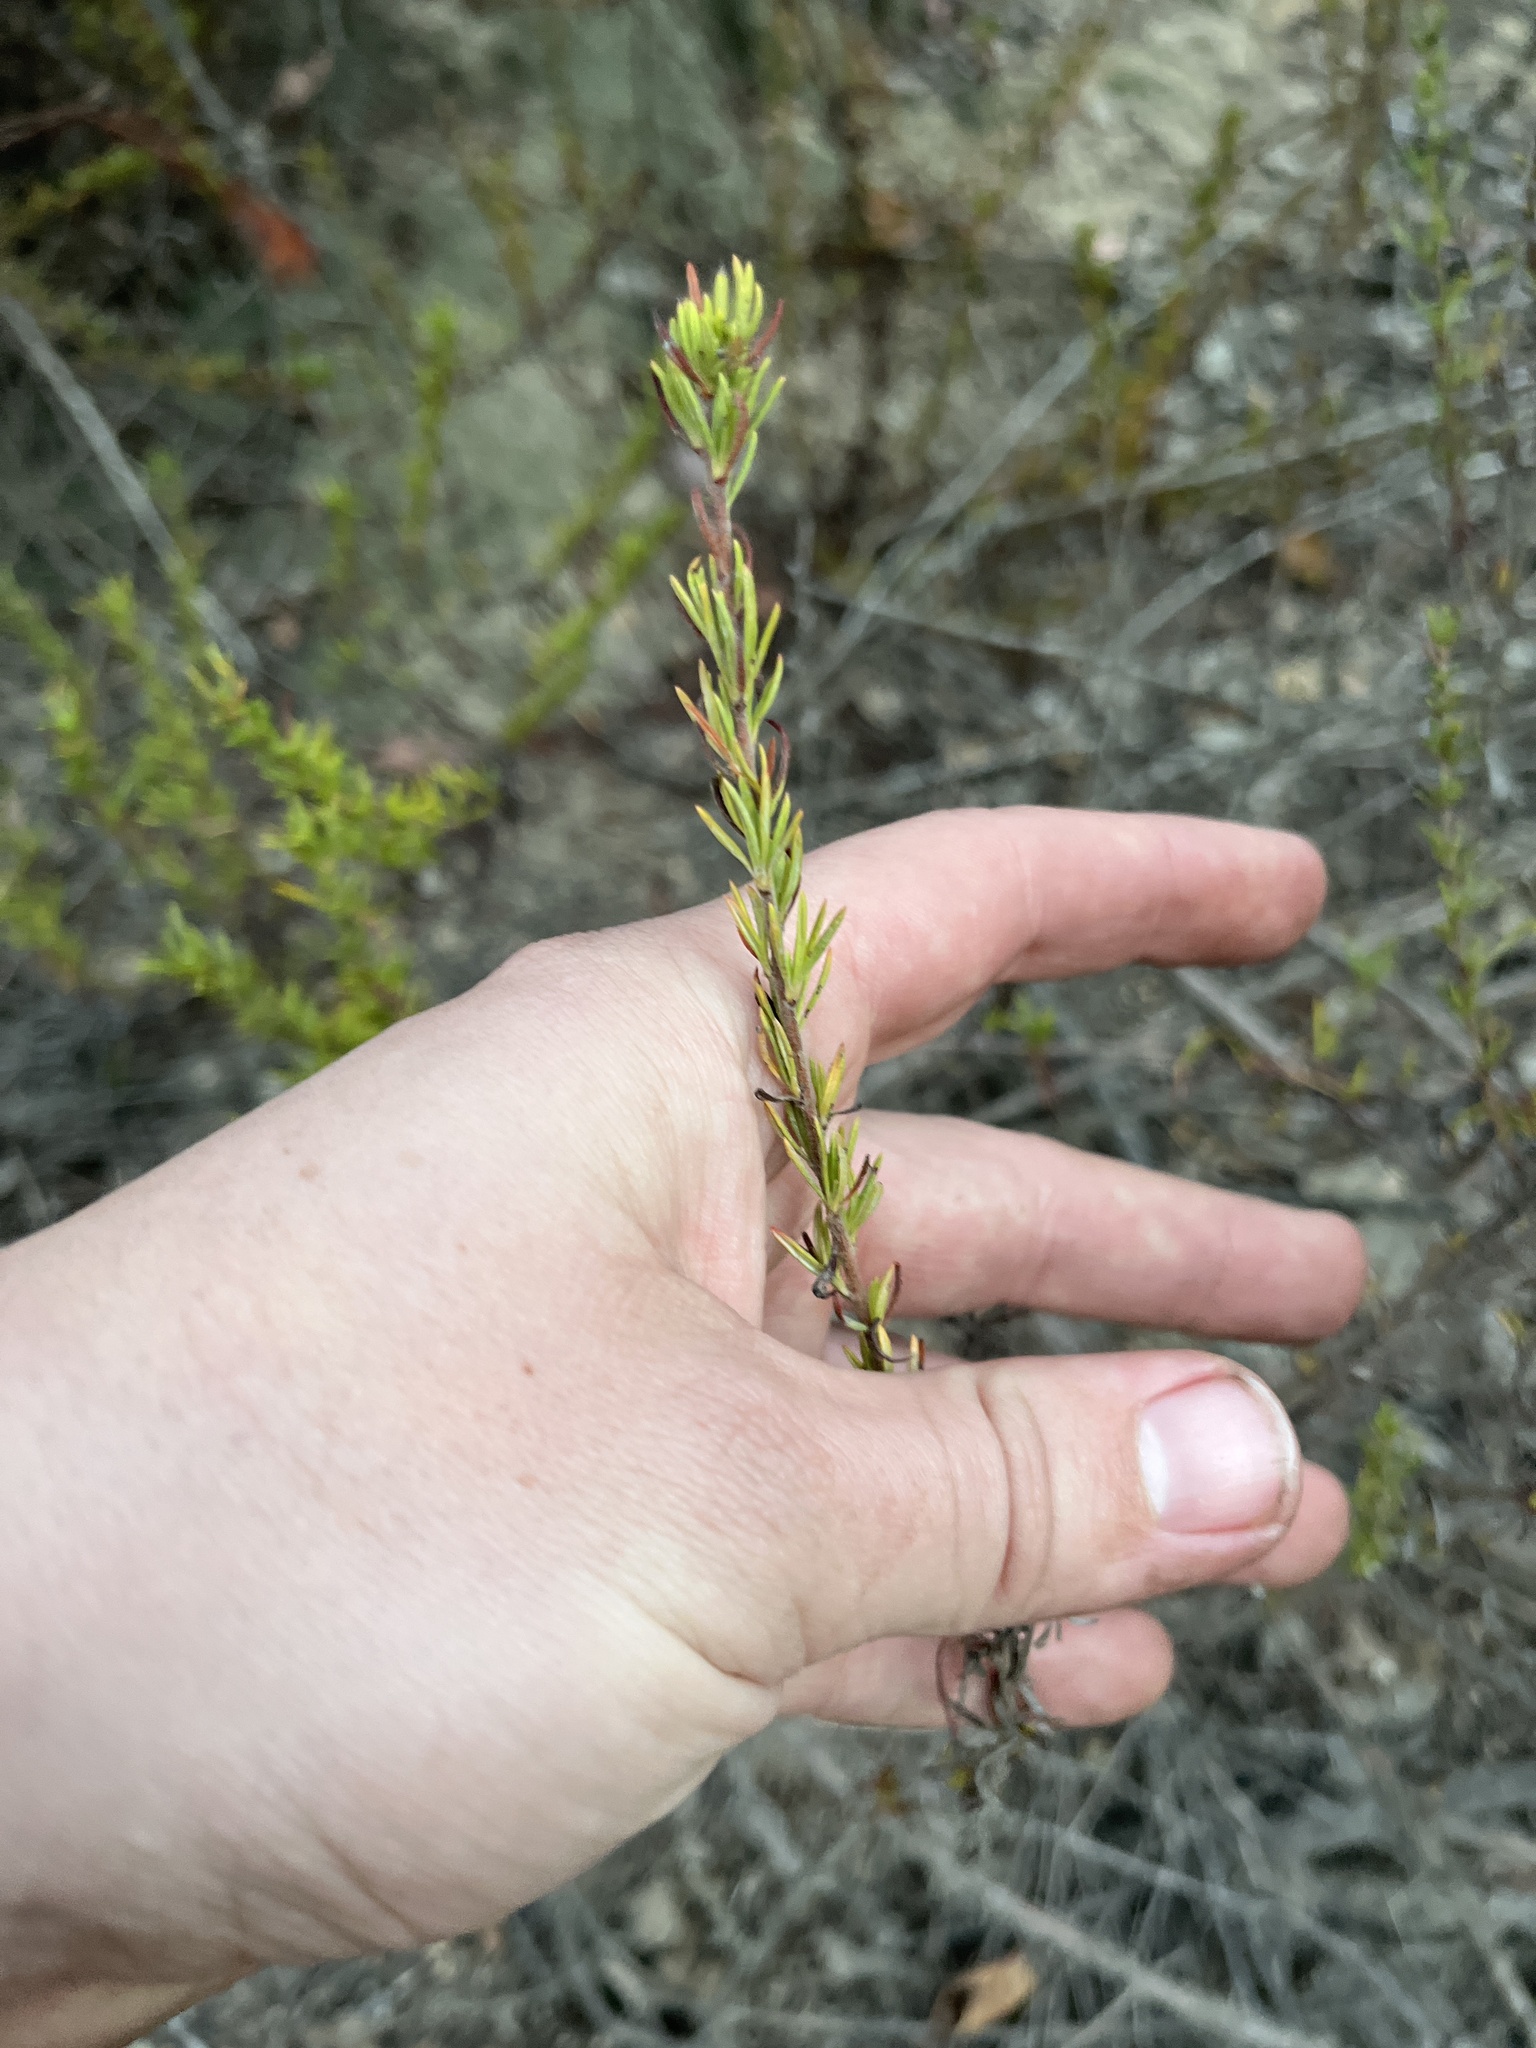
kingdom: Plantae
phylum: Tracheophyta
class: Magnoliopsida
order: Caryophyllales
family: Polygonaceae
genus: Eriogonum
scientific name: Eriogonum fasciculatum
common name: California wild buckwheat
